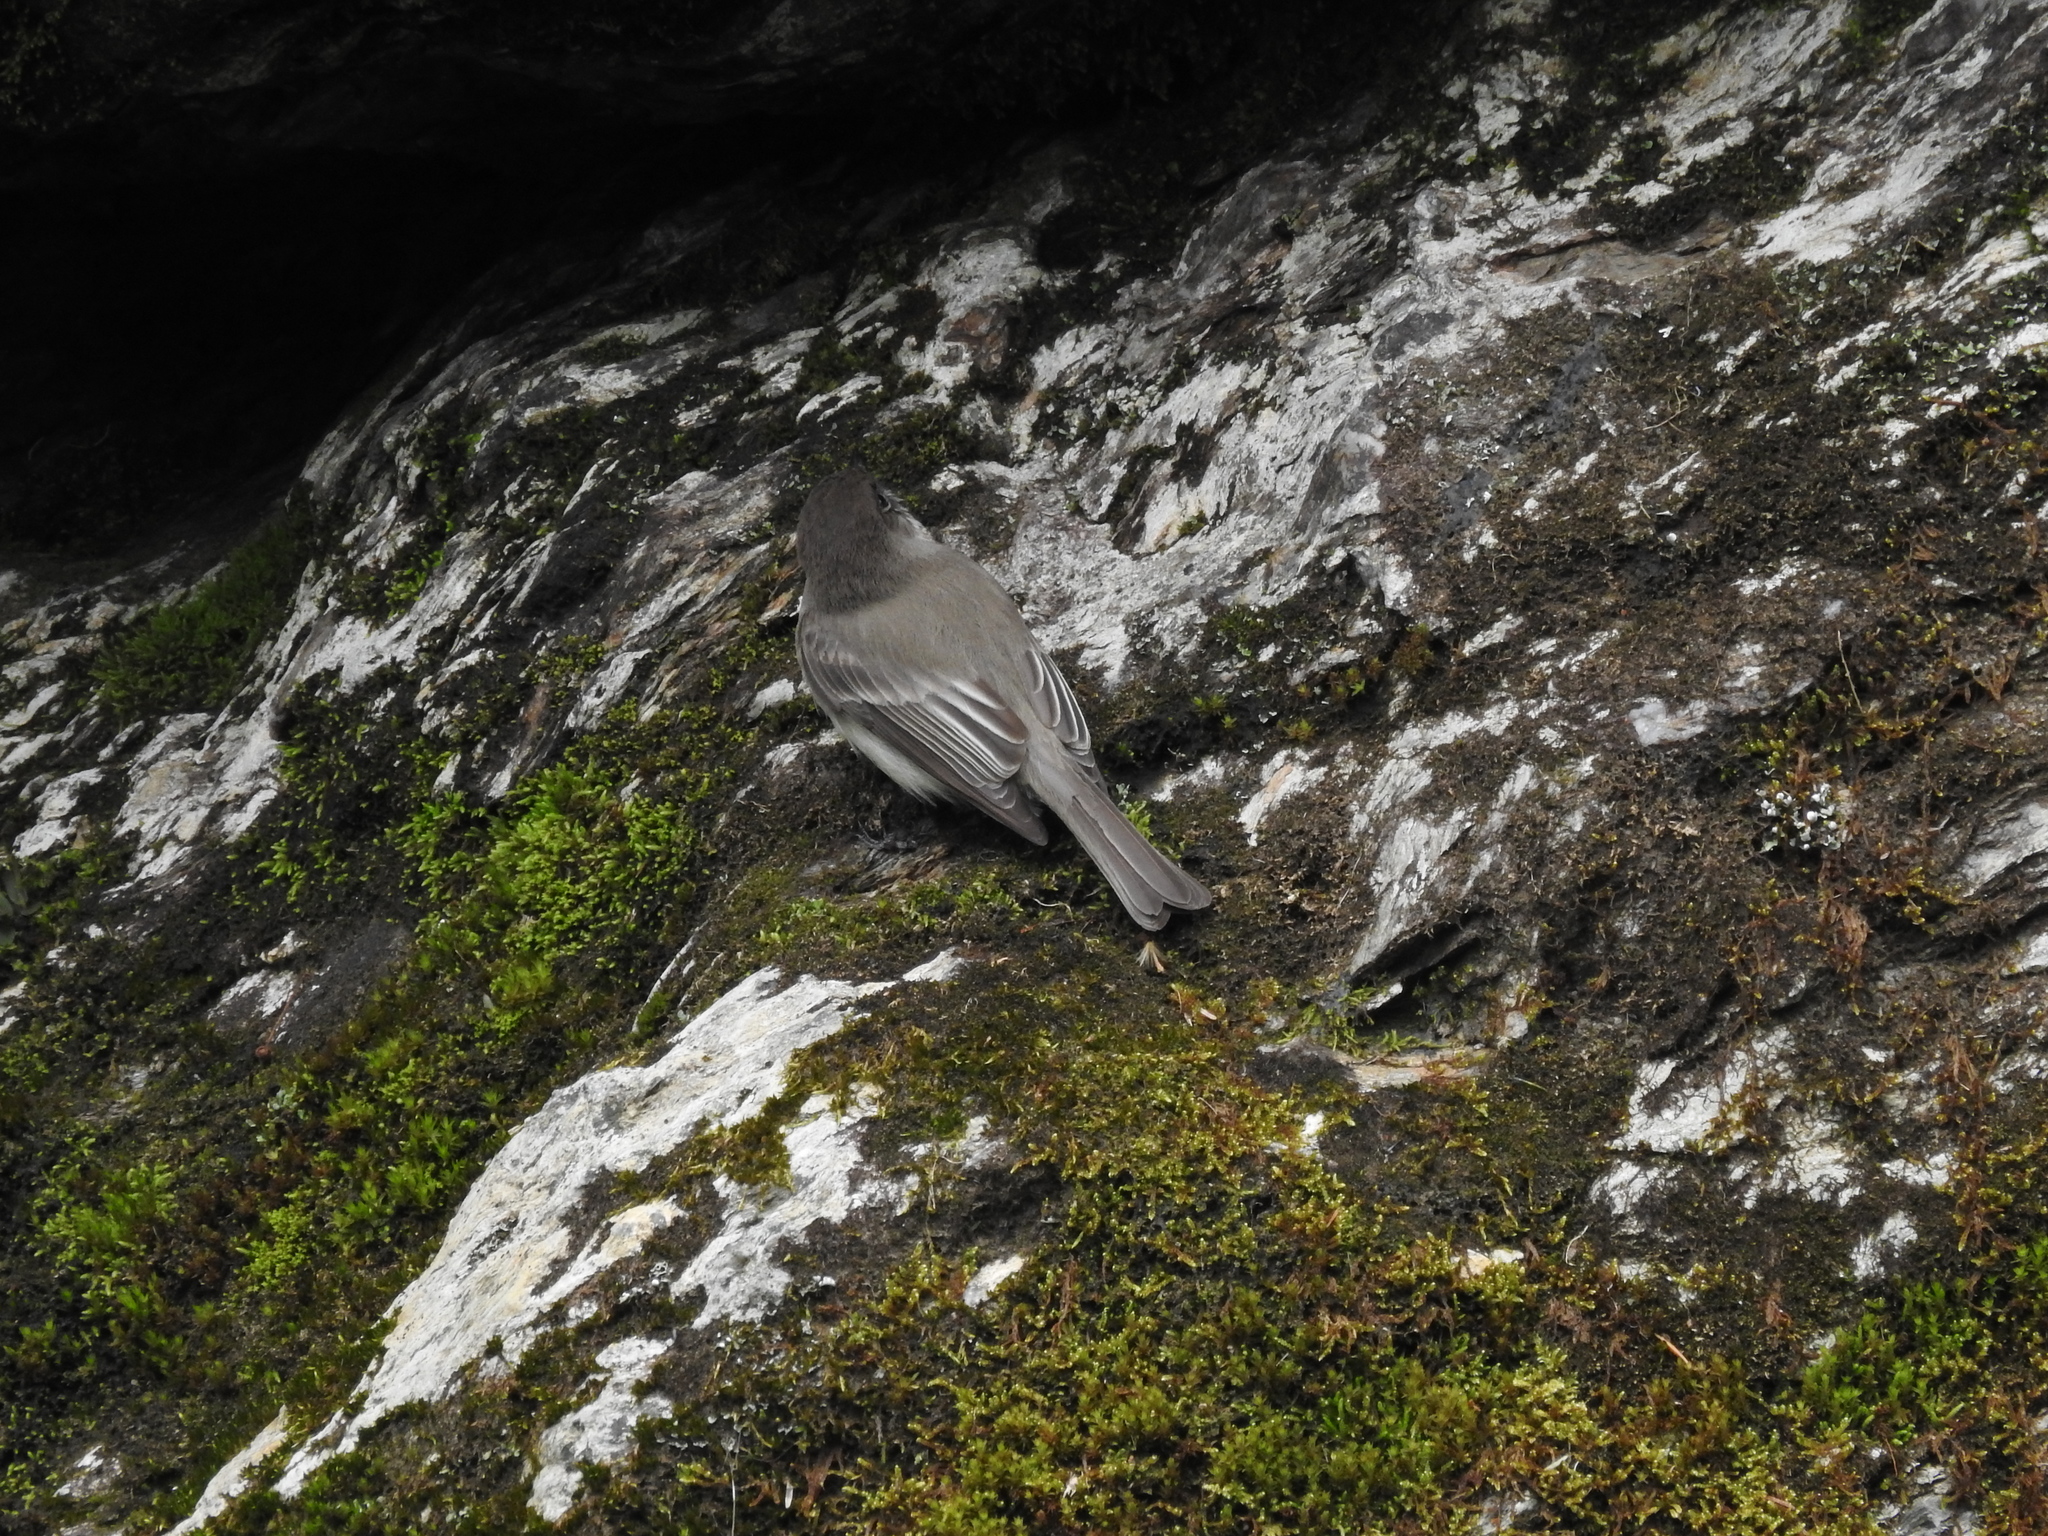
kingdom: Animalia
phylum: Chordata
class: Aves
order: Passeriformes
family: Tyrannidae
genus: Sayornis
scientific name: Sayornis phoebe
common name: Eastern phoebe
